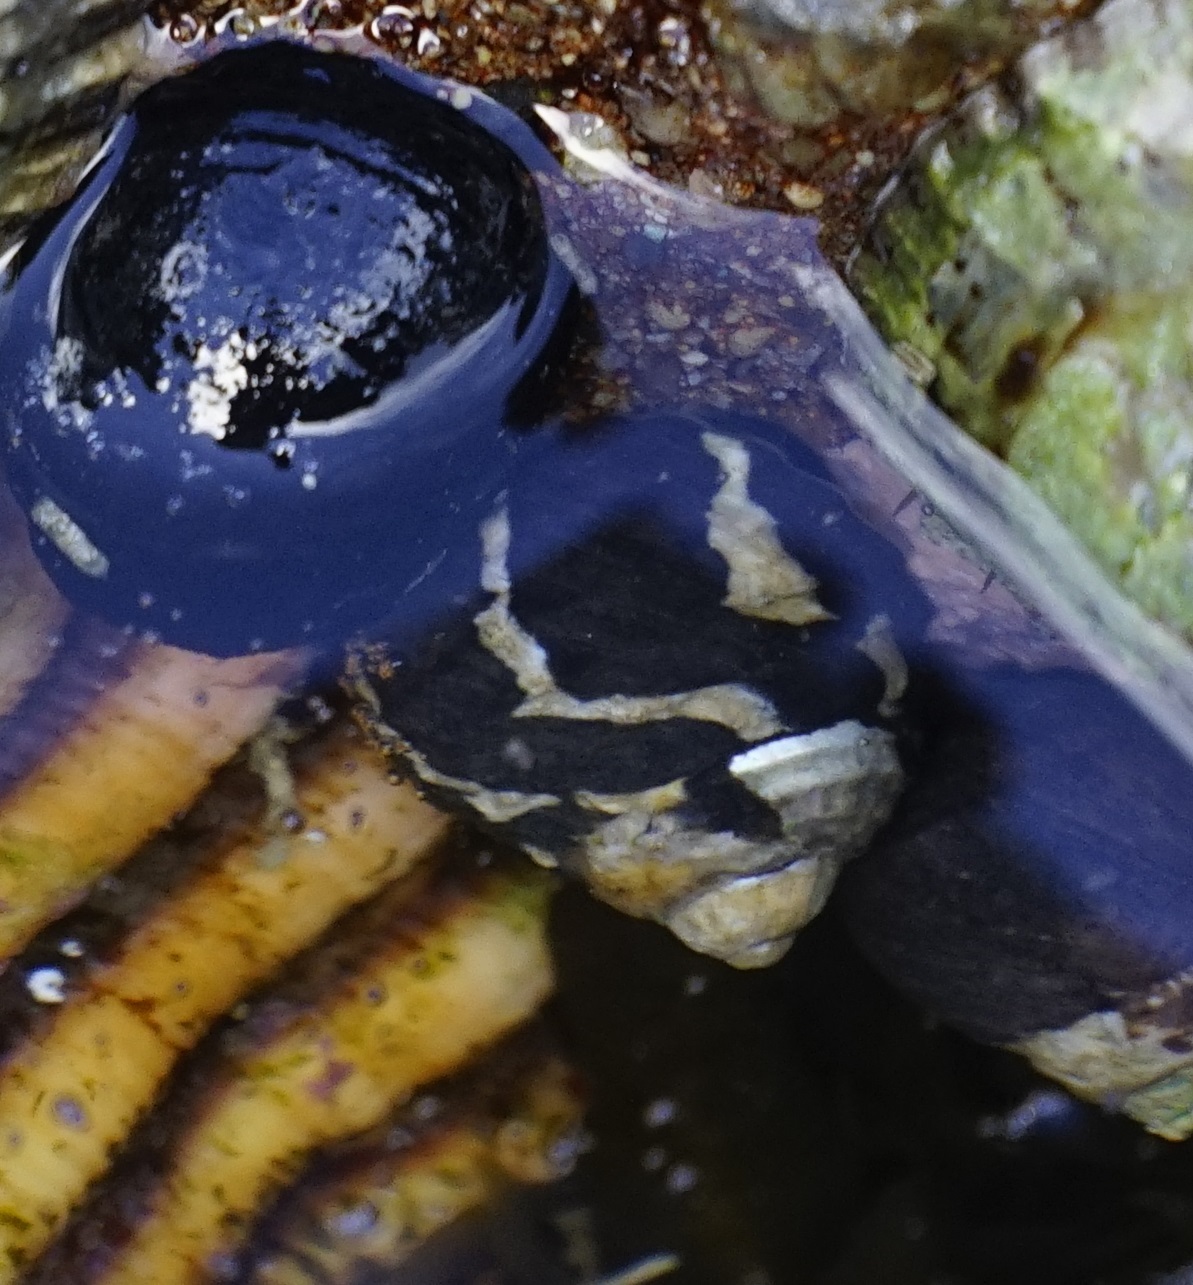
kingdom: Animalia
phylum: Mollusca
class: Gastropoda
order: Trochida
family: Trochidae
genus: Austrocochlea
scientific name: Austrocochlea porcata
